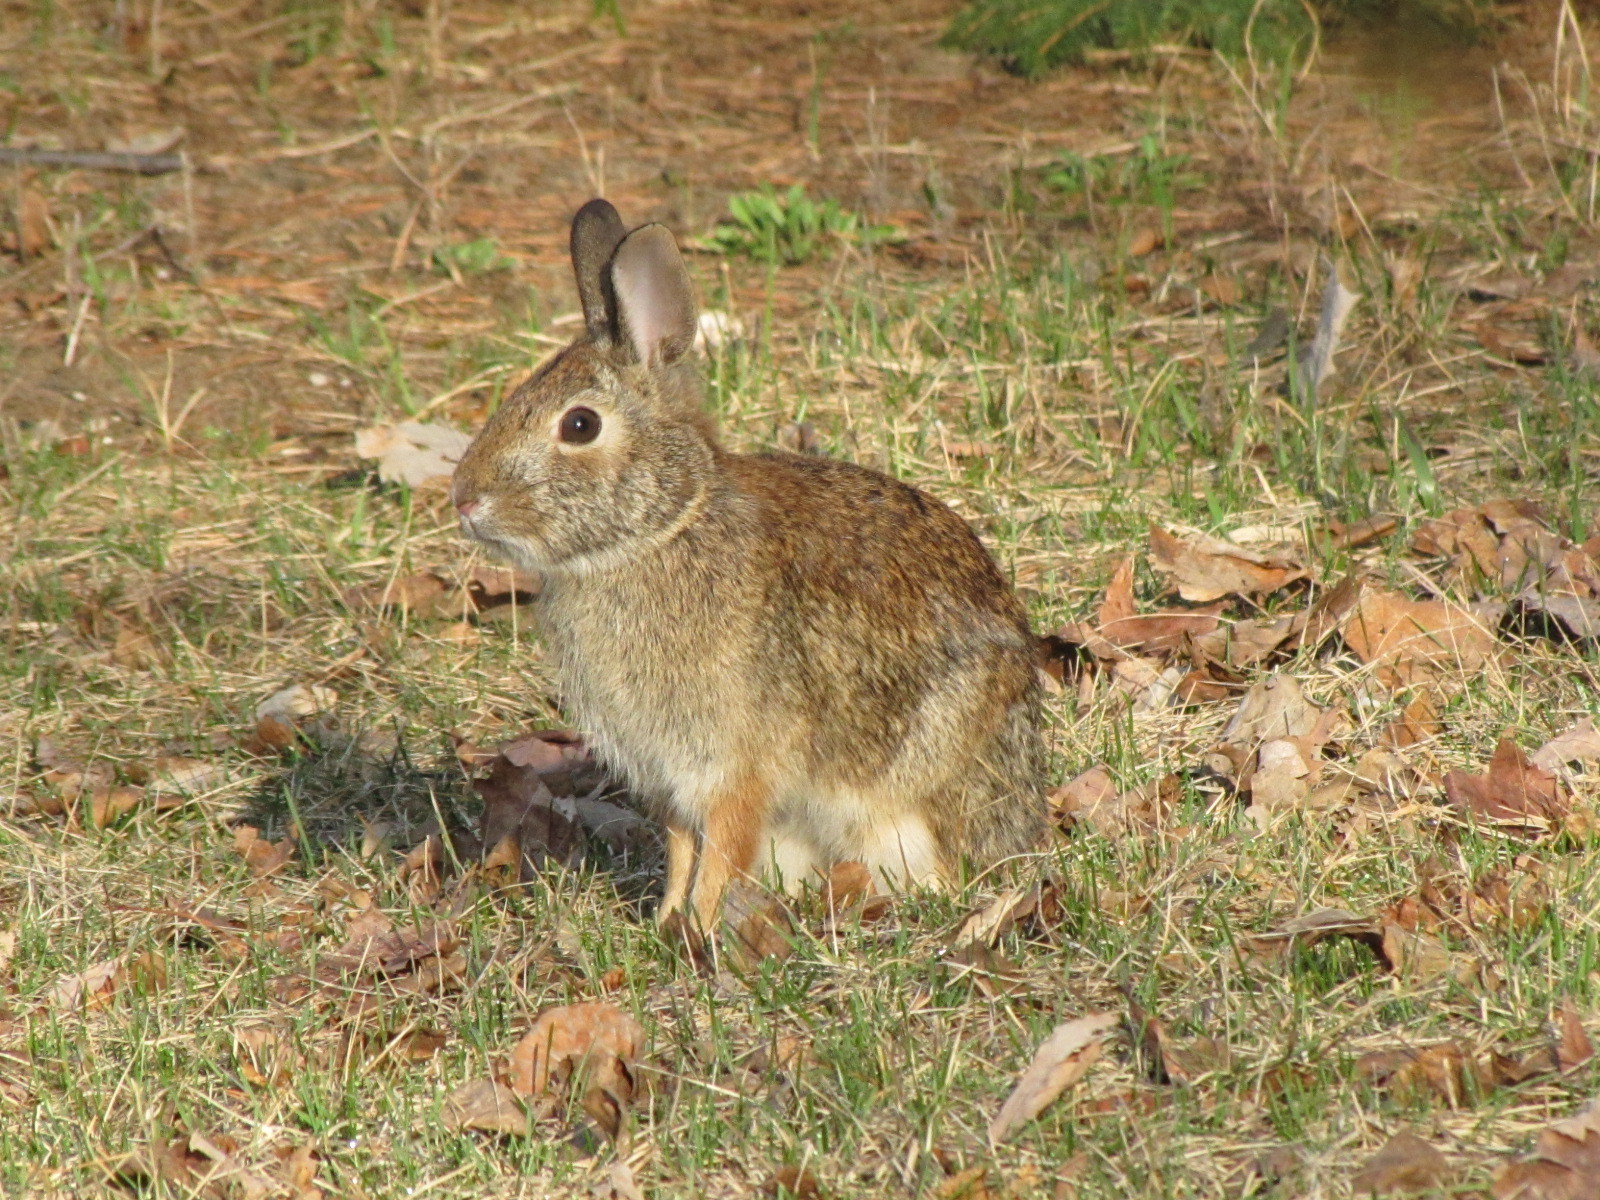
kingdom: Animalia
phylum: Chordata
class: Mammalia
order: Lagomorpha
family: Leporidae
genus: Sylvilagus
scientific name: Sylvilagus floridanus
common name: Eastern cottontail
